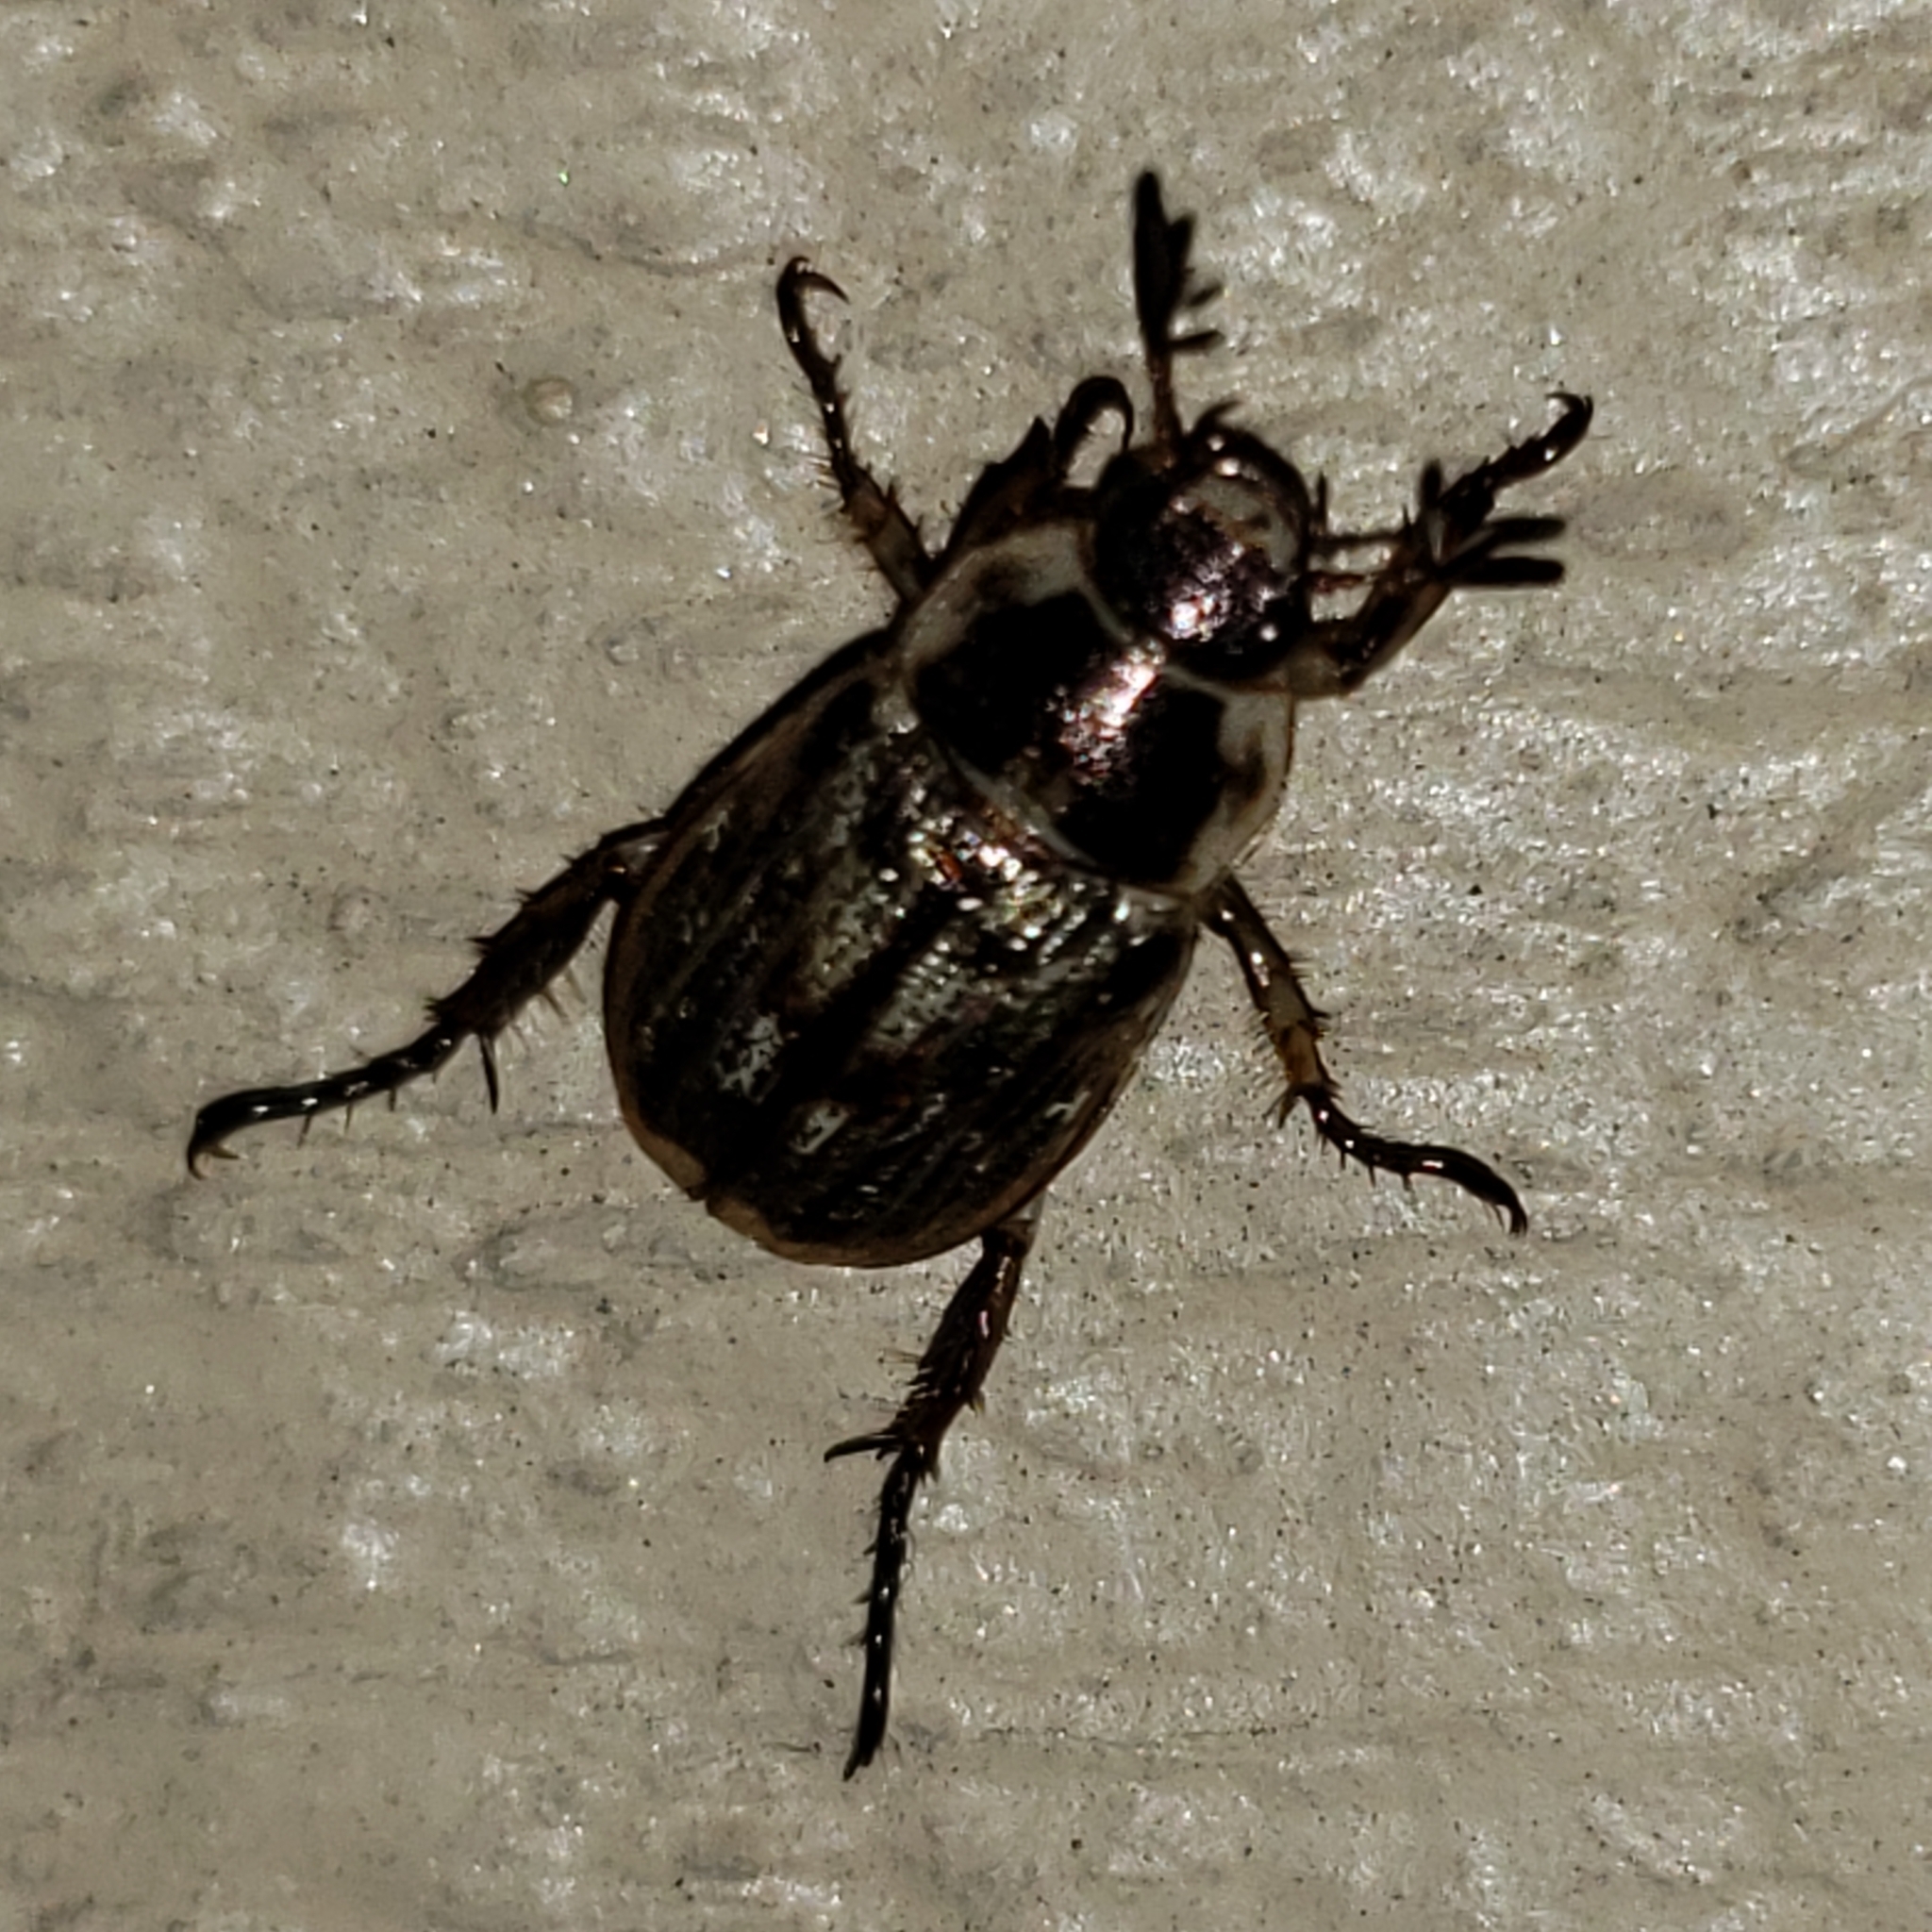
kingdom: Animalia
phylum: Arthropoda
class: Insecta
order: Coleoptera
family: Scarabaeidae
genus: Exomala
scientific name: Exomala orientalis
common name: Oriental beetle
